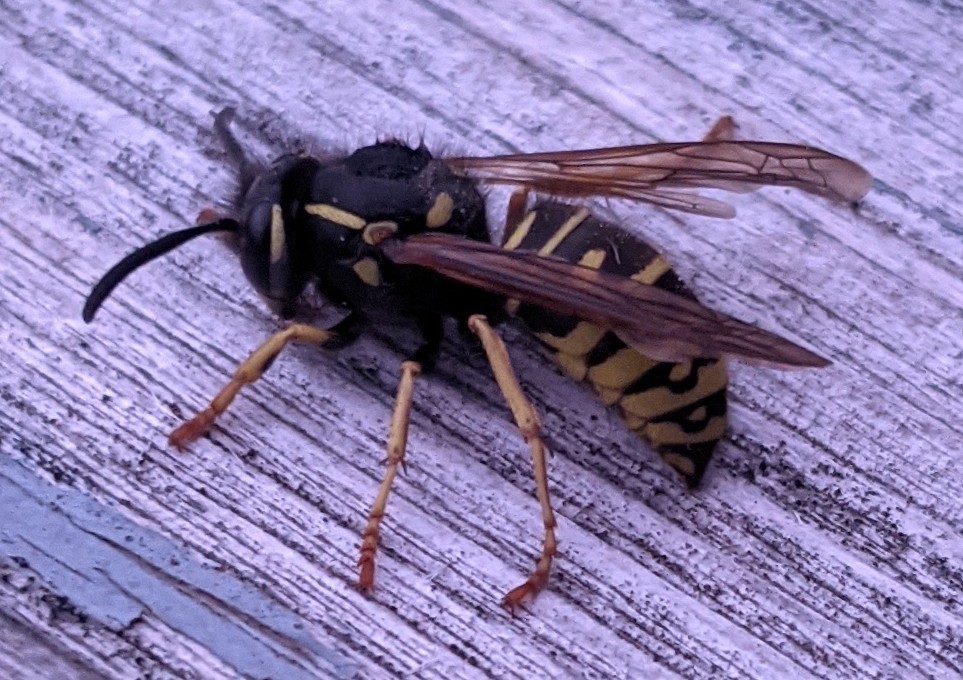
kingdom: Animalia
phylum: Arthropoda
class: Insecta
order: Hymenoptera
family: Vespidae
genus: Vespula
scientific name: Vespula acadica
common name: Forest yellowjacket
